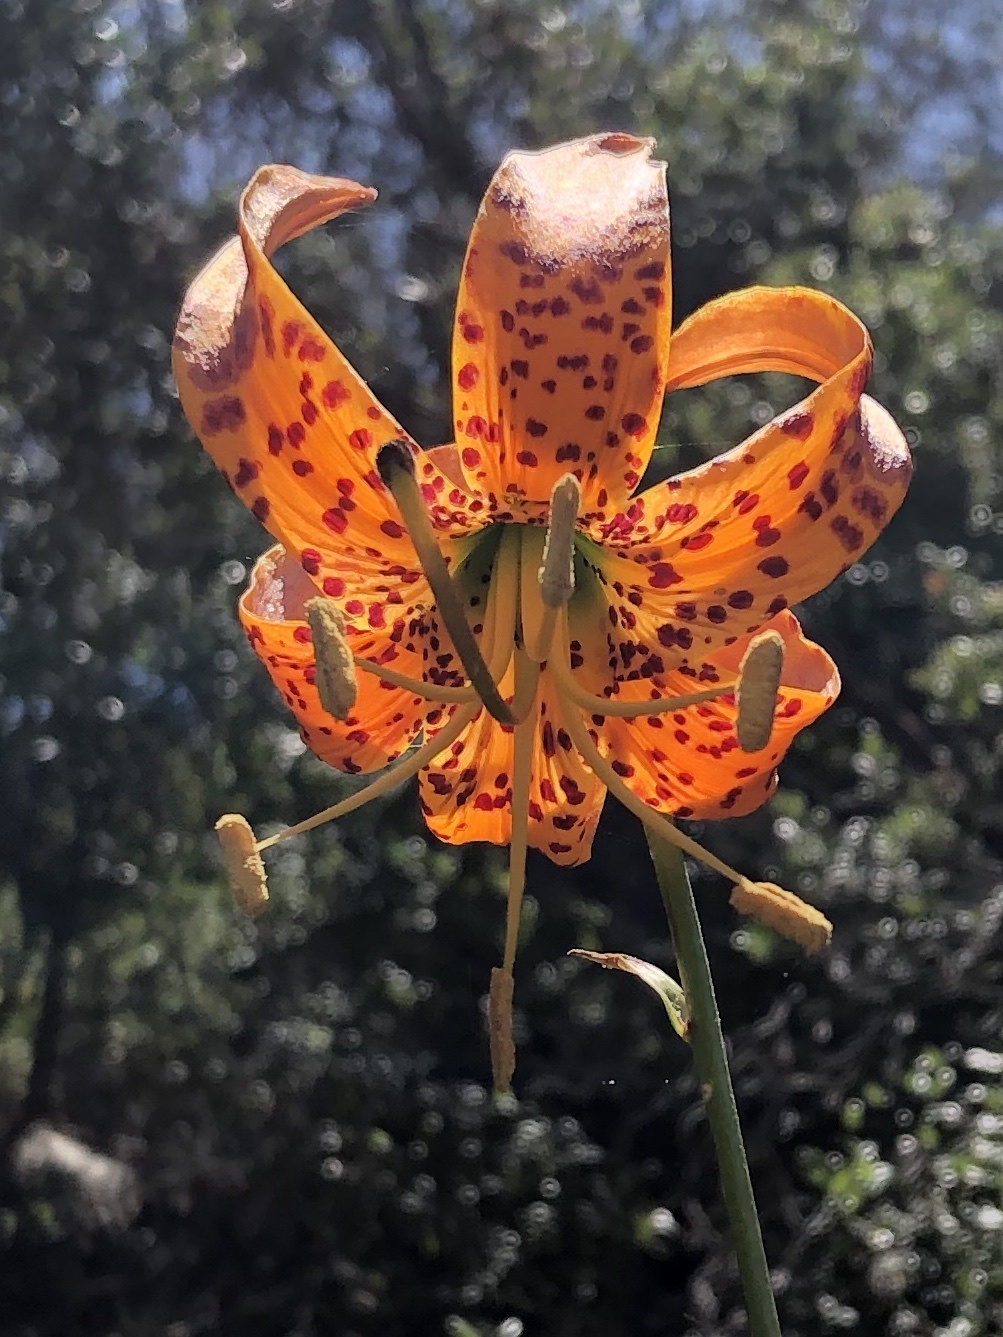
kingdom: Plantae
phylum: Tracheophyta
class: Liliopsida
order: Liliales
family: Liliaceae
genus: Lilium
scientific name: Lilium humboldtii
